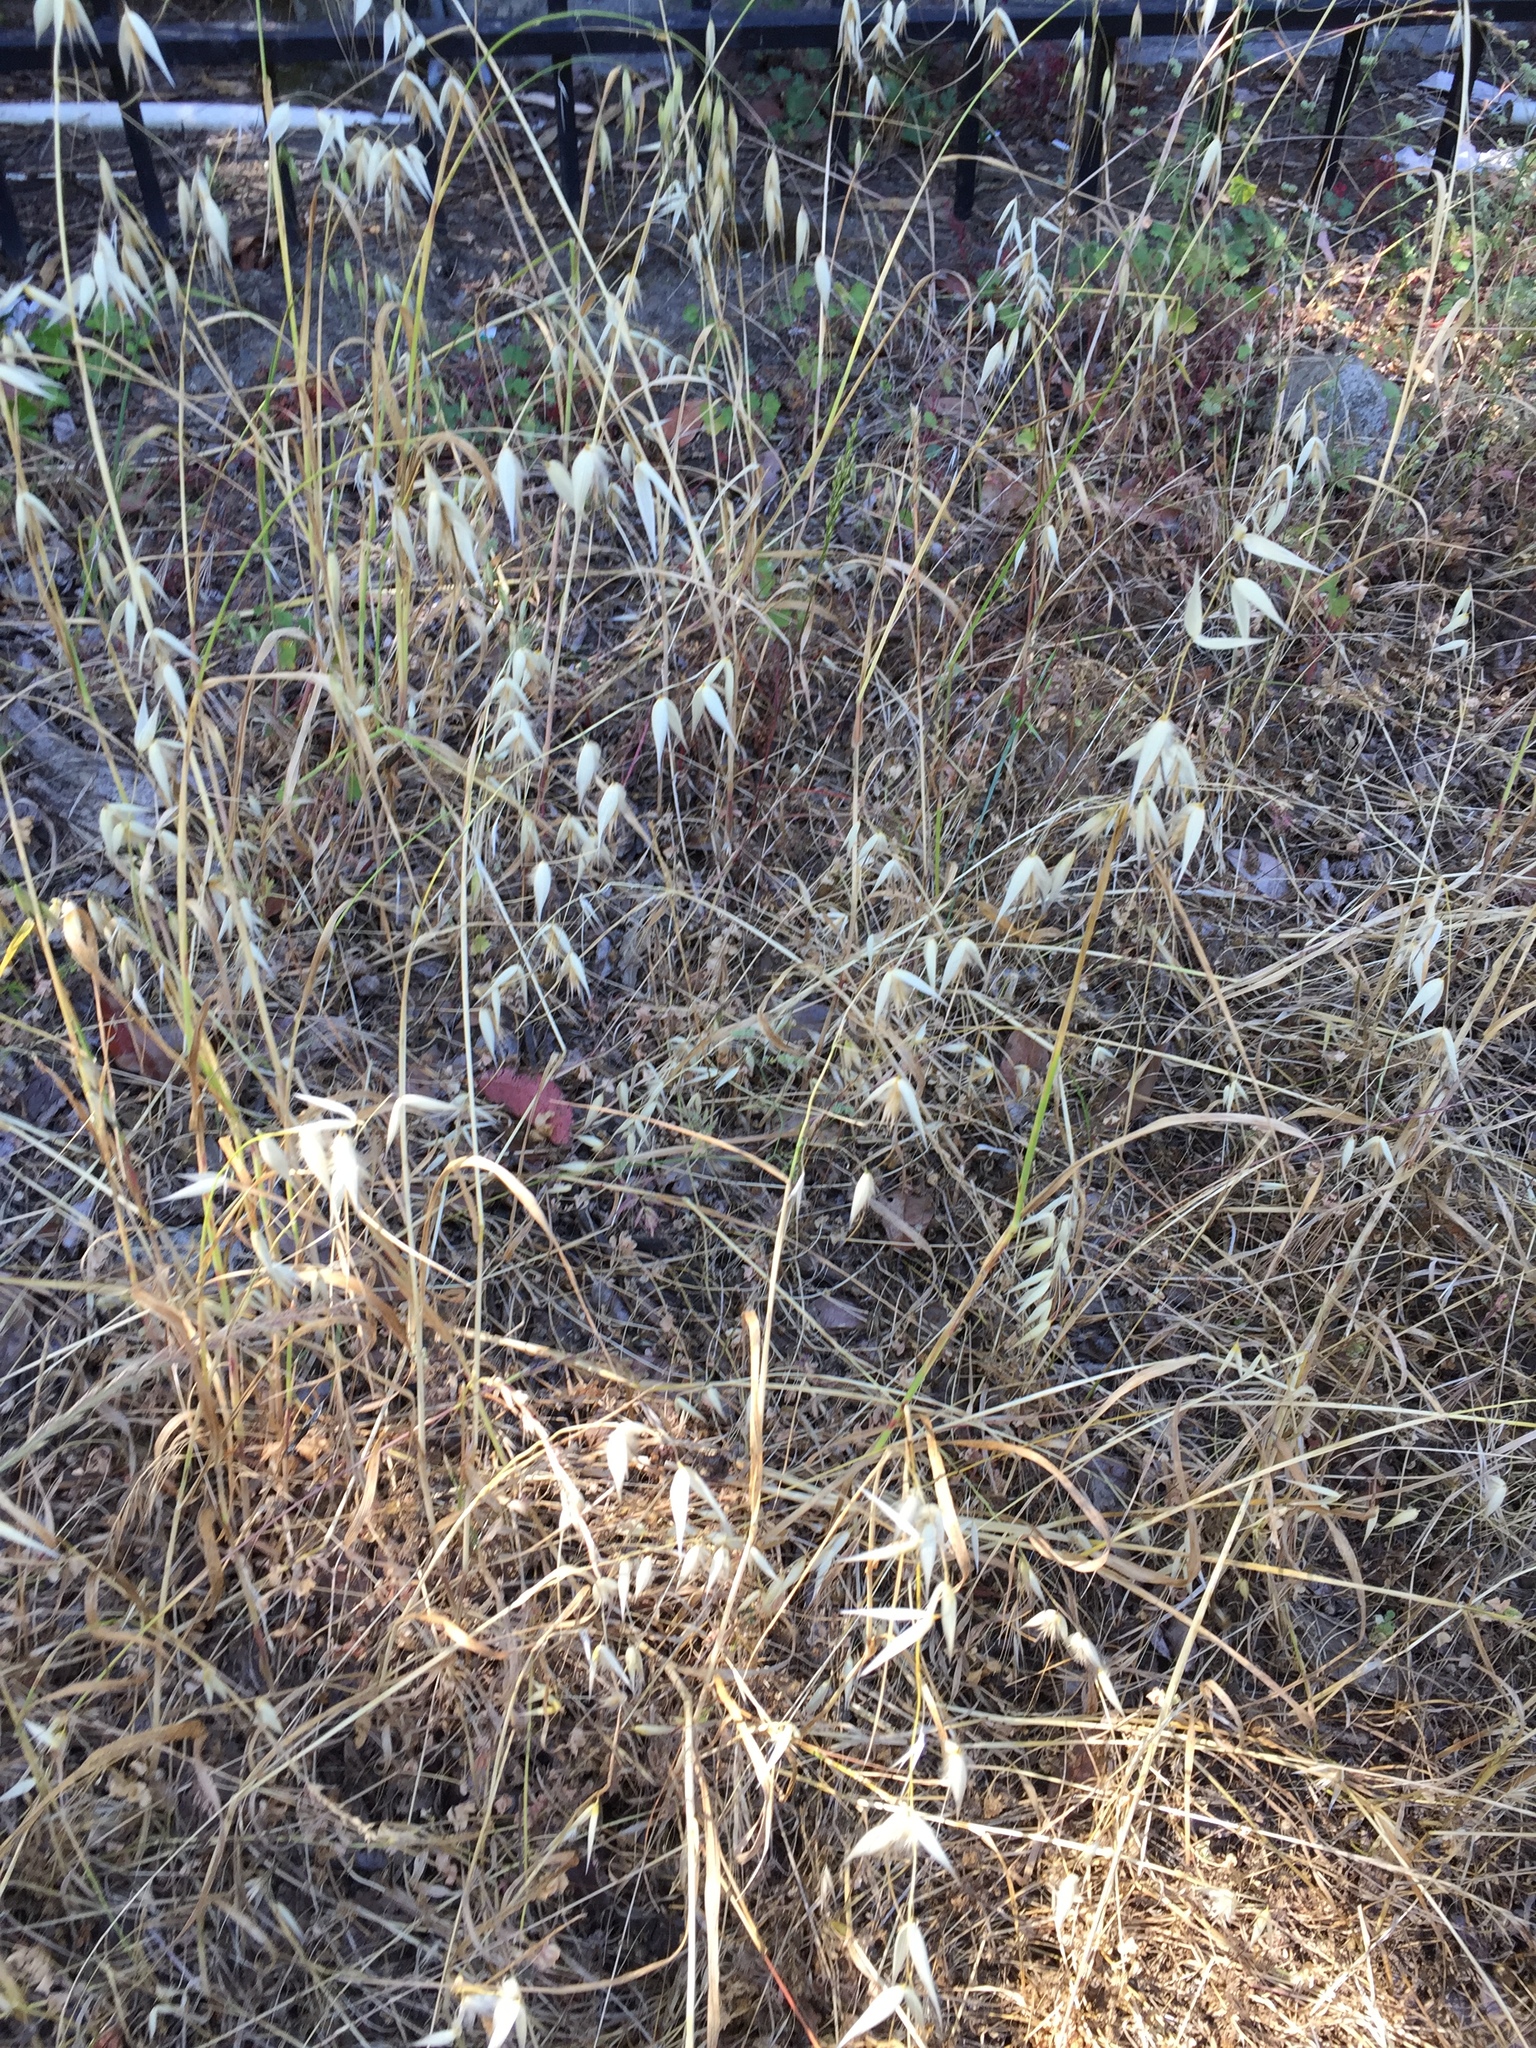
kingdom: Plantae
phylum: Tracheophyta
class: Liliopsida
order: Poales
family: Poaceae
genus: Avena
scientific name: Avena sterilis
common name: Animated oat
